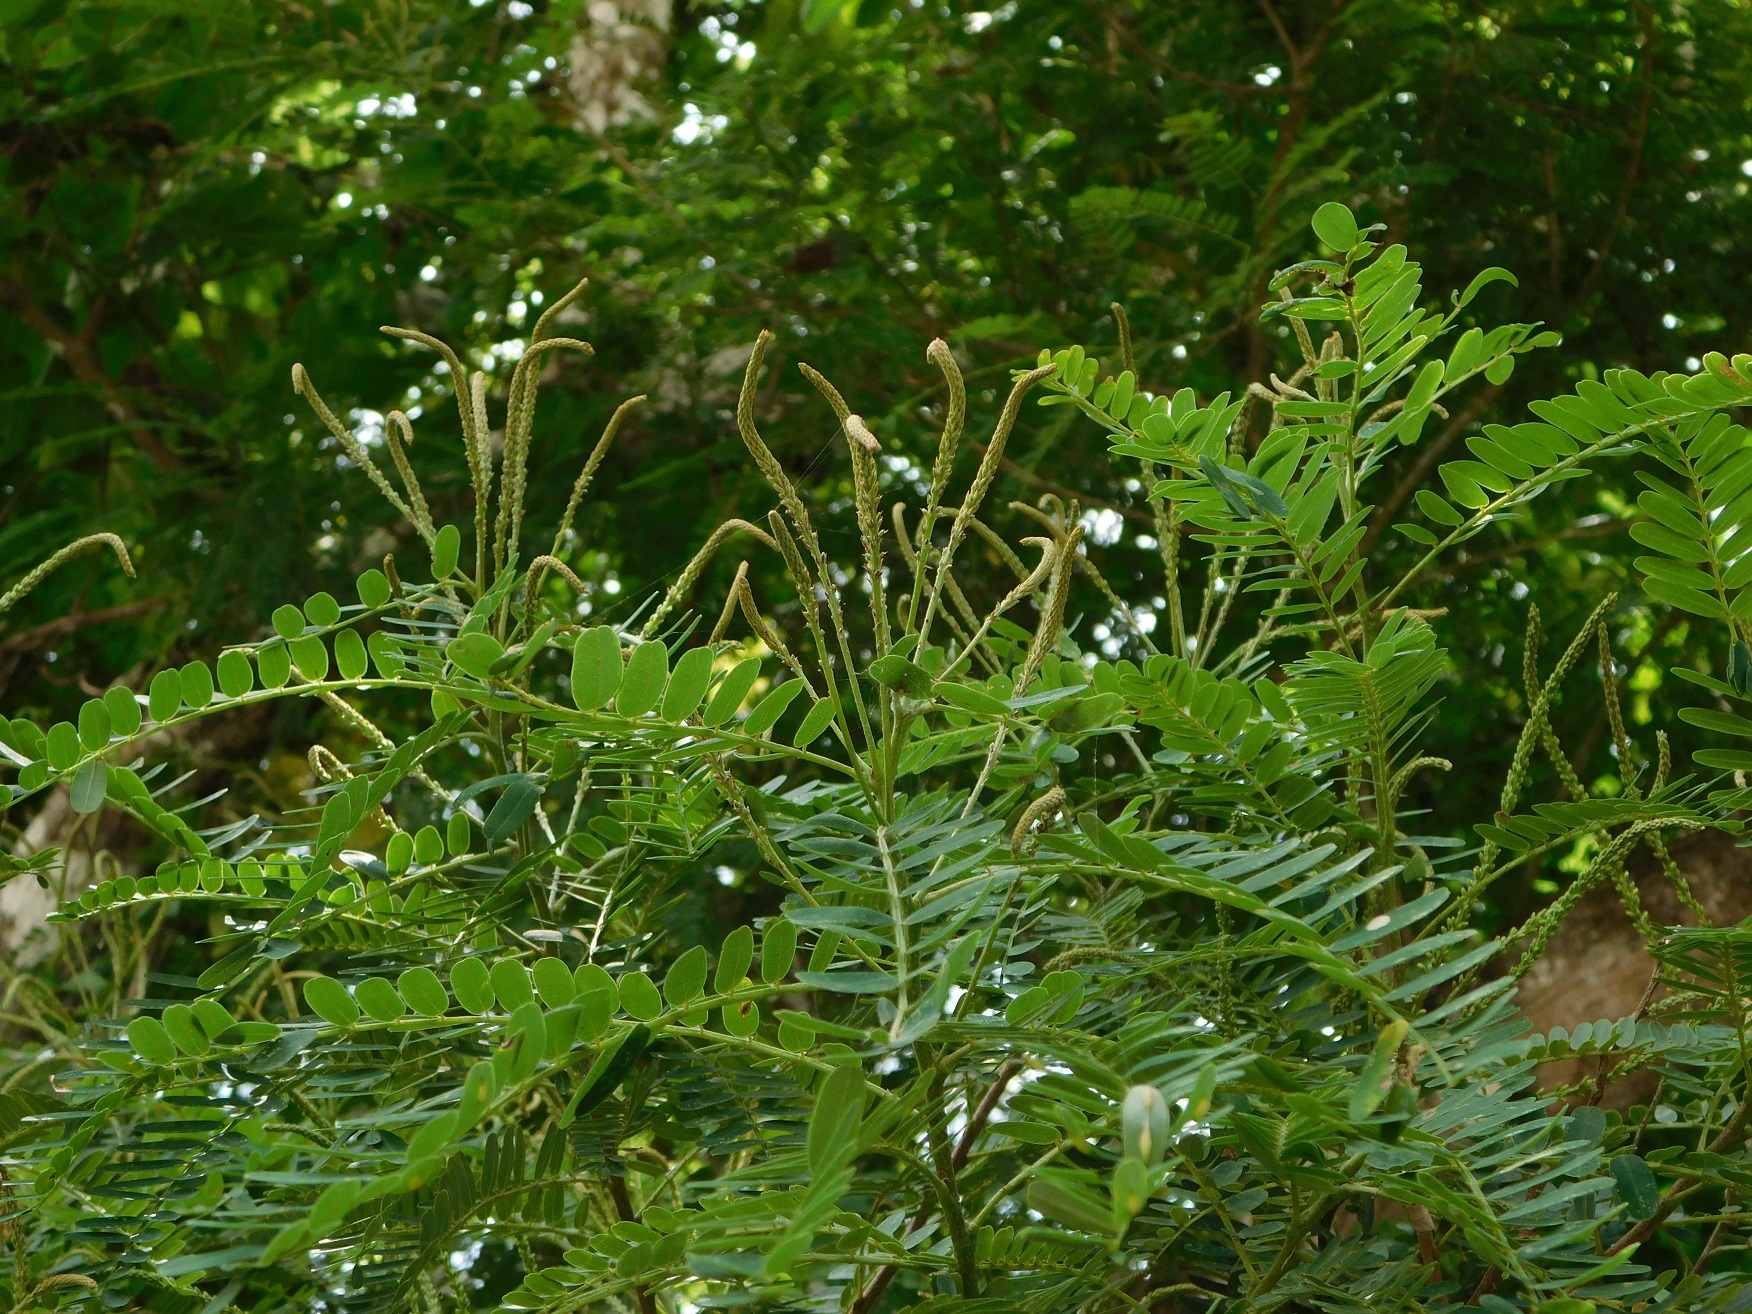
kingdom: Plantae
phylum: Tracheophyta
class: Magnoliopsida
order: Picramniales
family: Picramniaceae
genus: Alvaradoa
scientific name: Alvaradoa amorphoides
